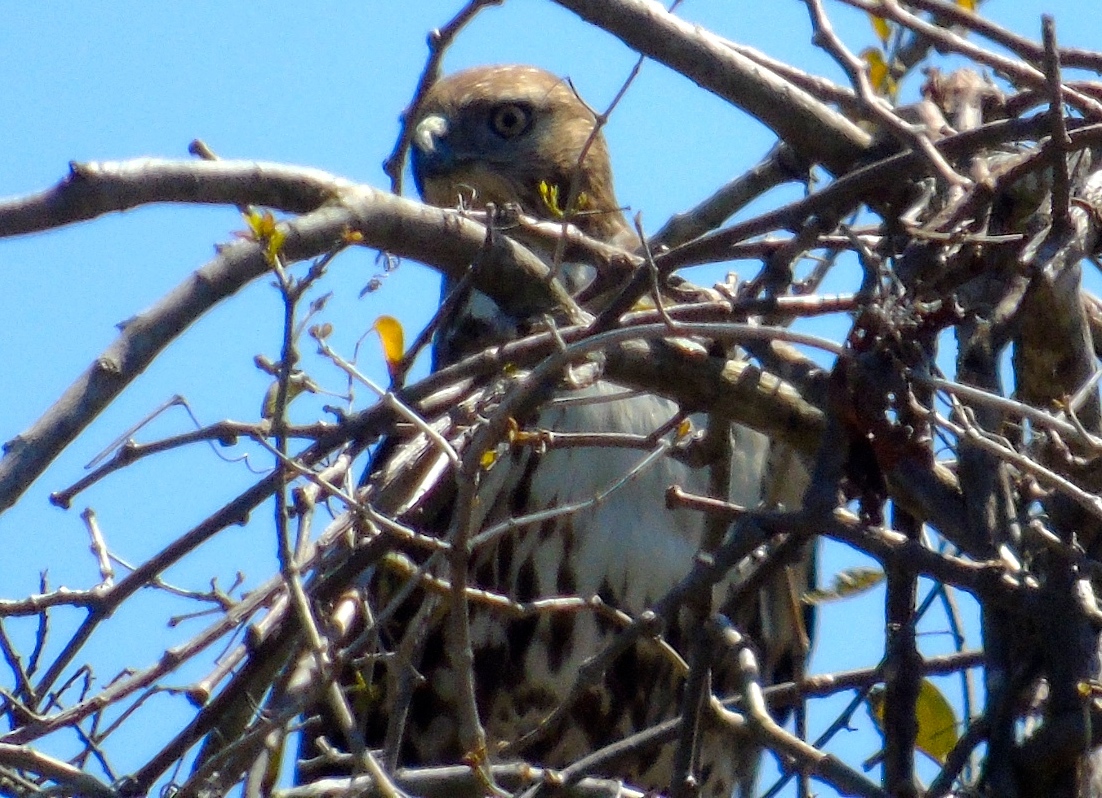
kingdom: Animalia
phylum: Chordata
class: Aves
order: Accipitriformes
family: Accipitridae
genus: Buteo
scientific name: Buteo jamaicensis
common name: Red-tailed hawk
